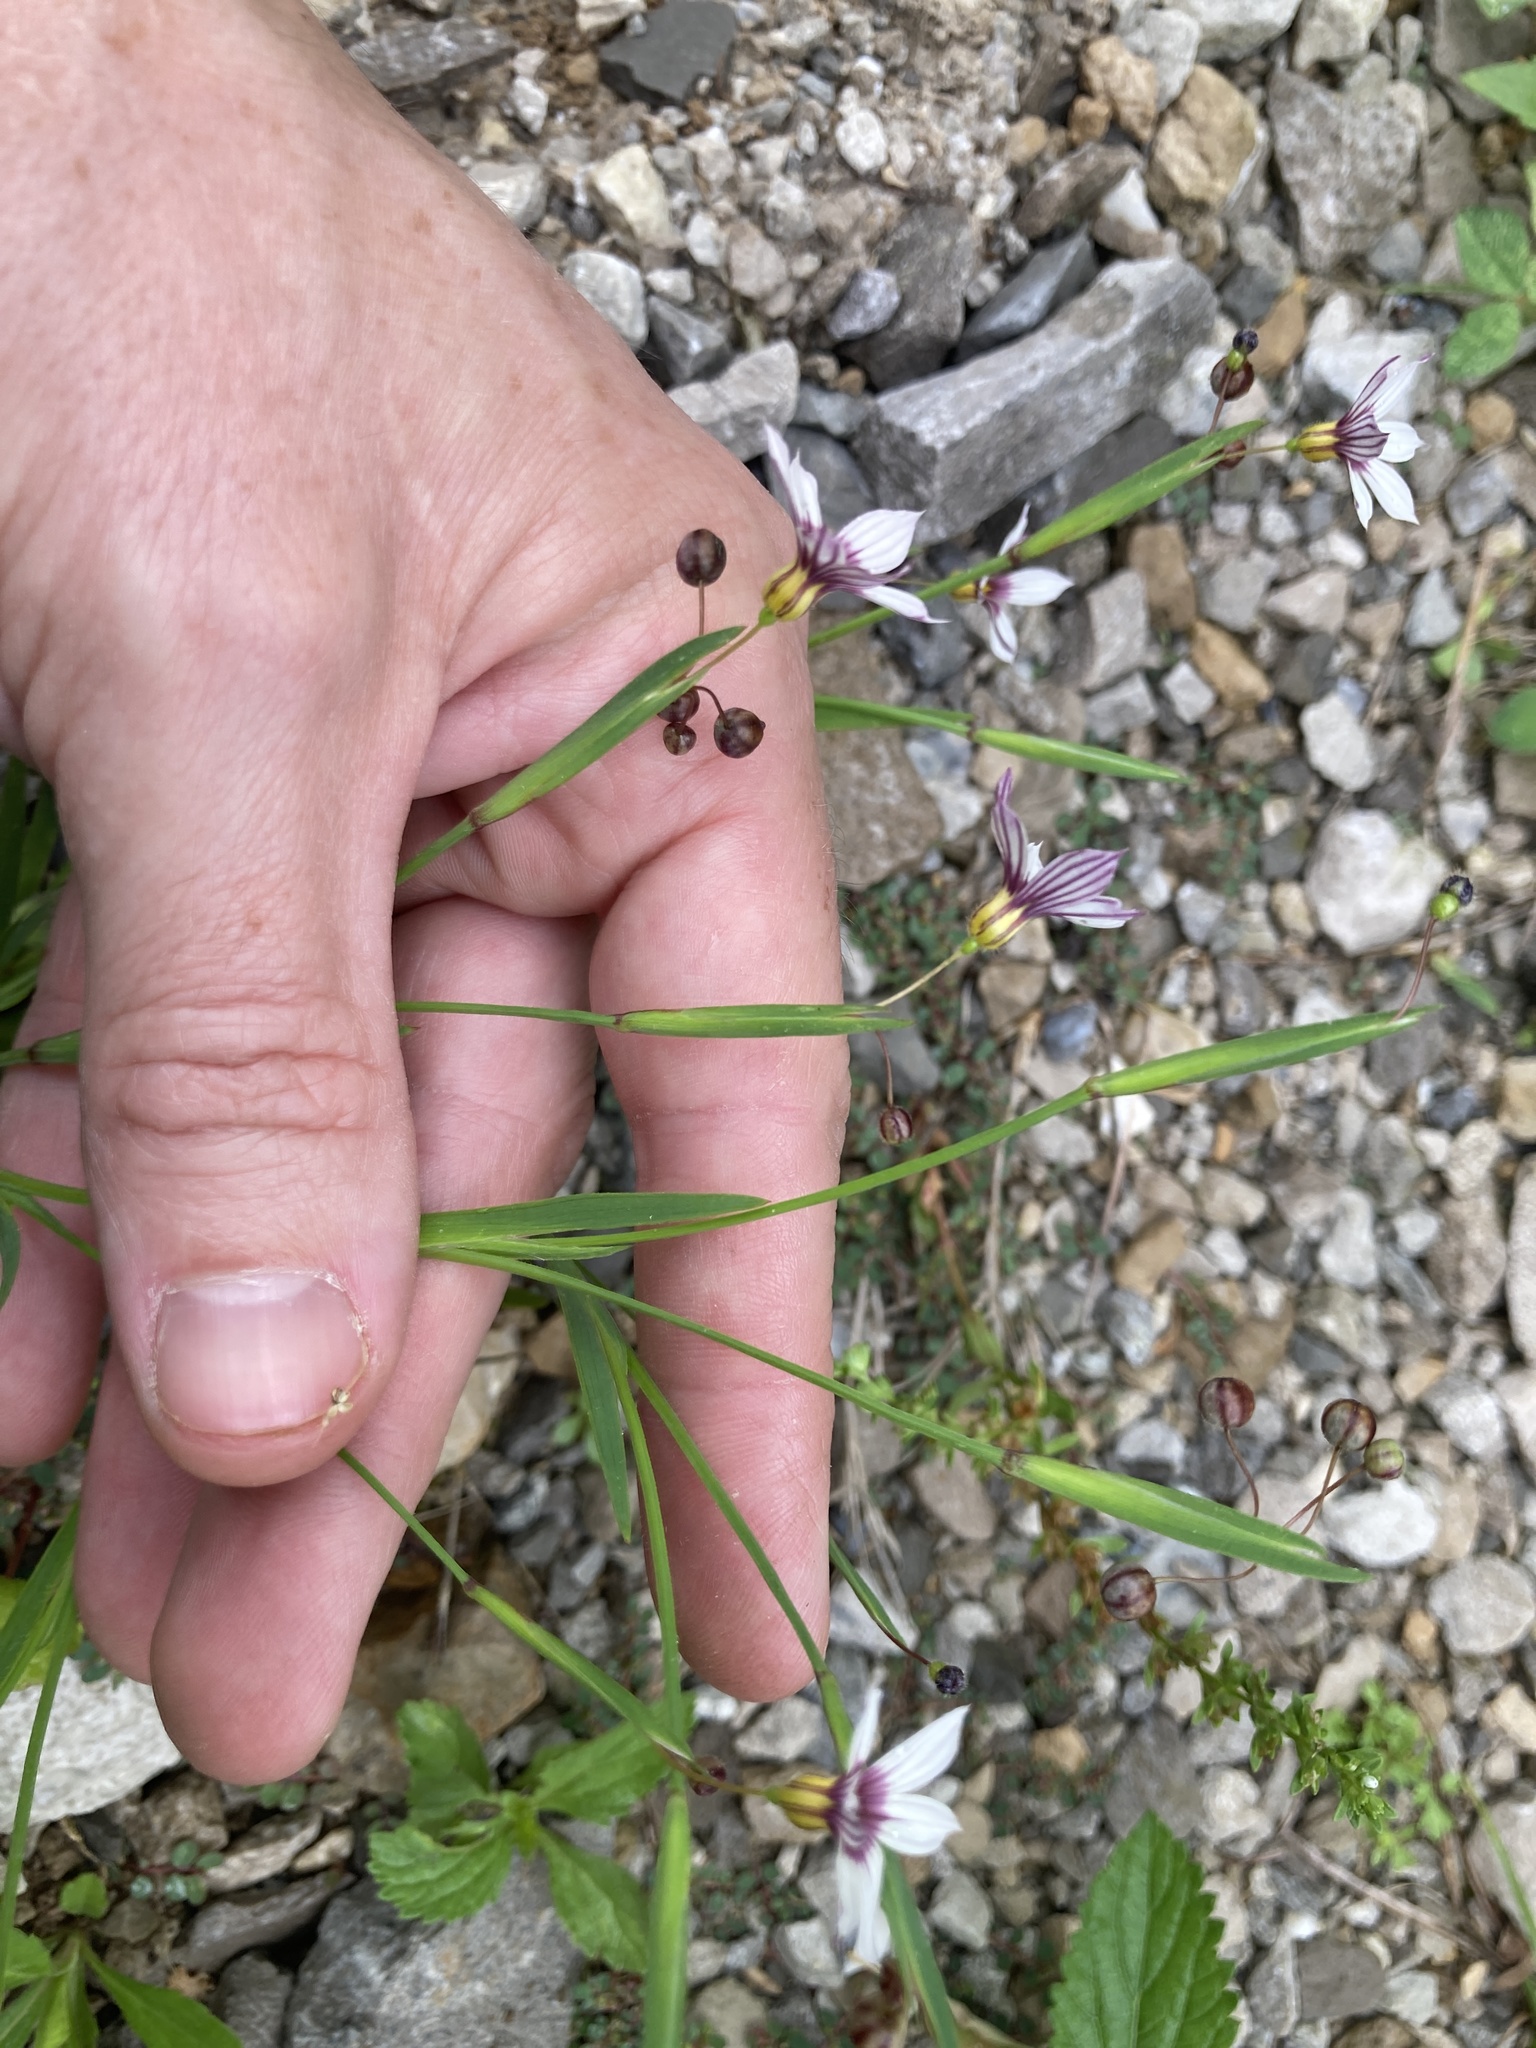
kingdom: Plantae
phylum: Tracheophyta
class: Liliopsida
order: Asparagales
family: Iridaceae
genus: Sisyrinchium
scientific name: Sisyrinchium micranthum
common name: Bermuda pigroot
